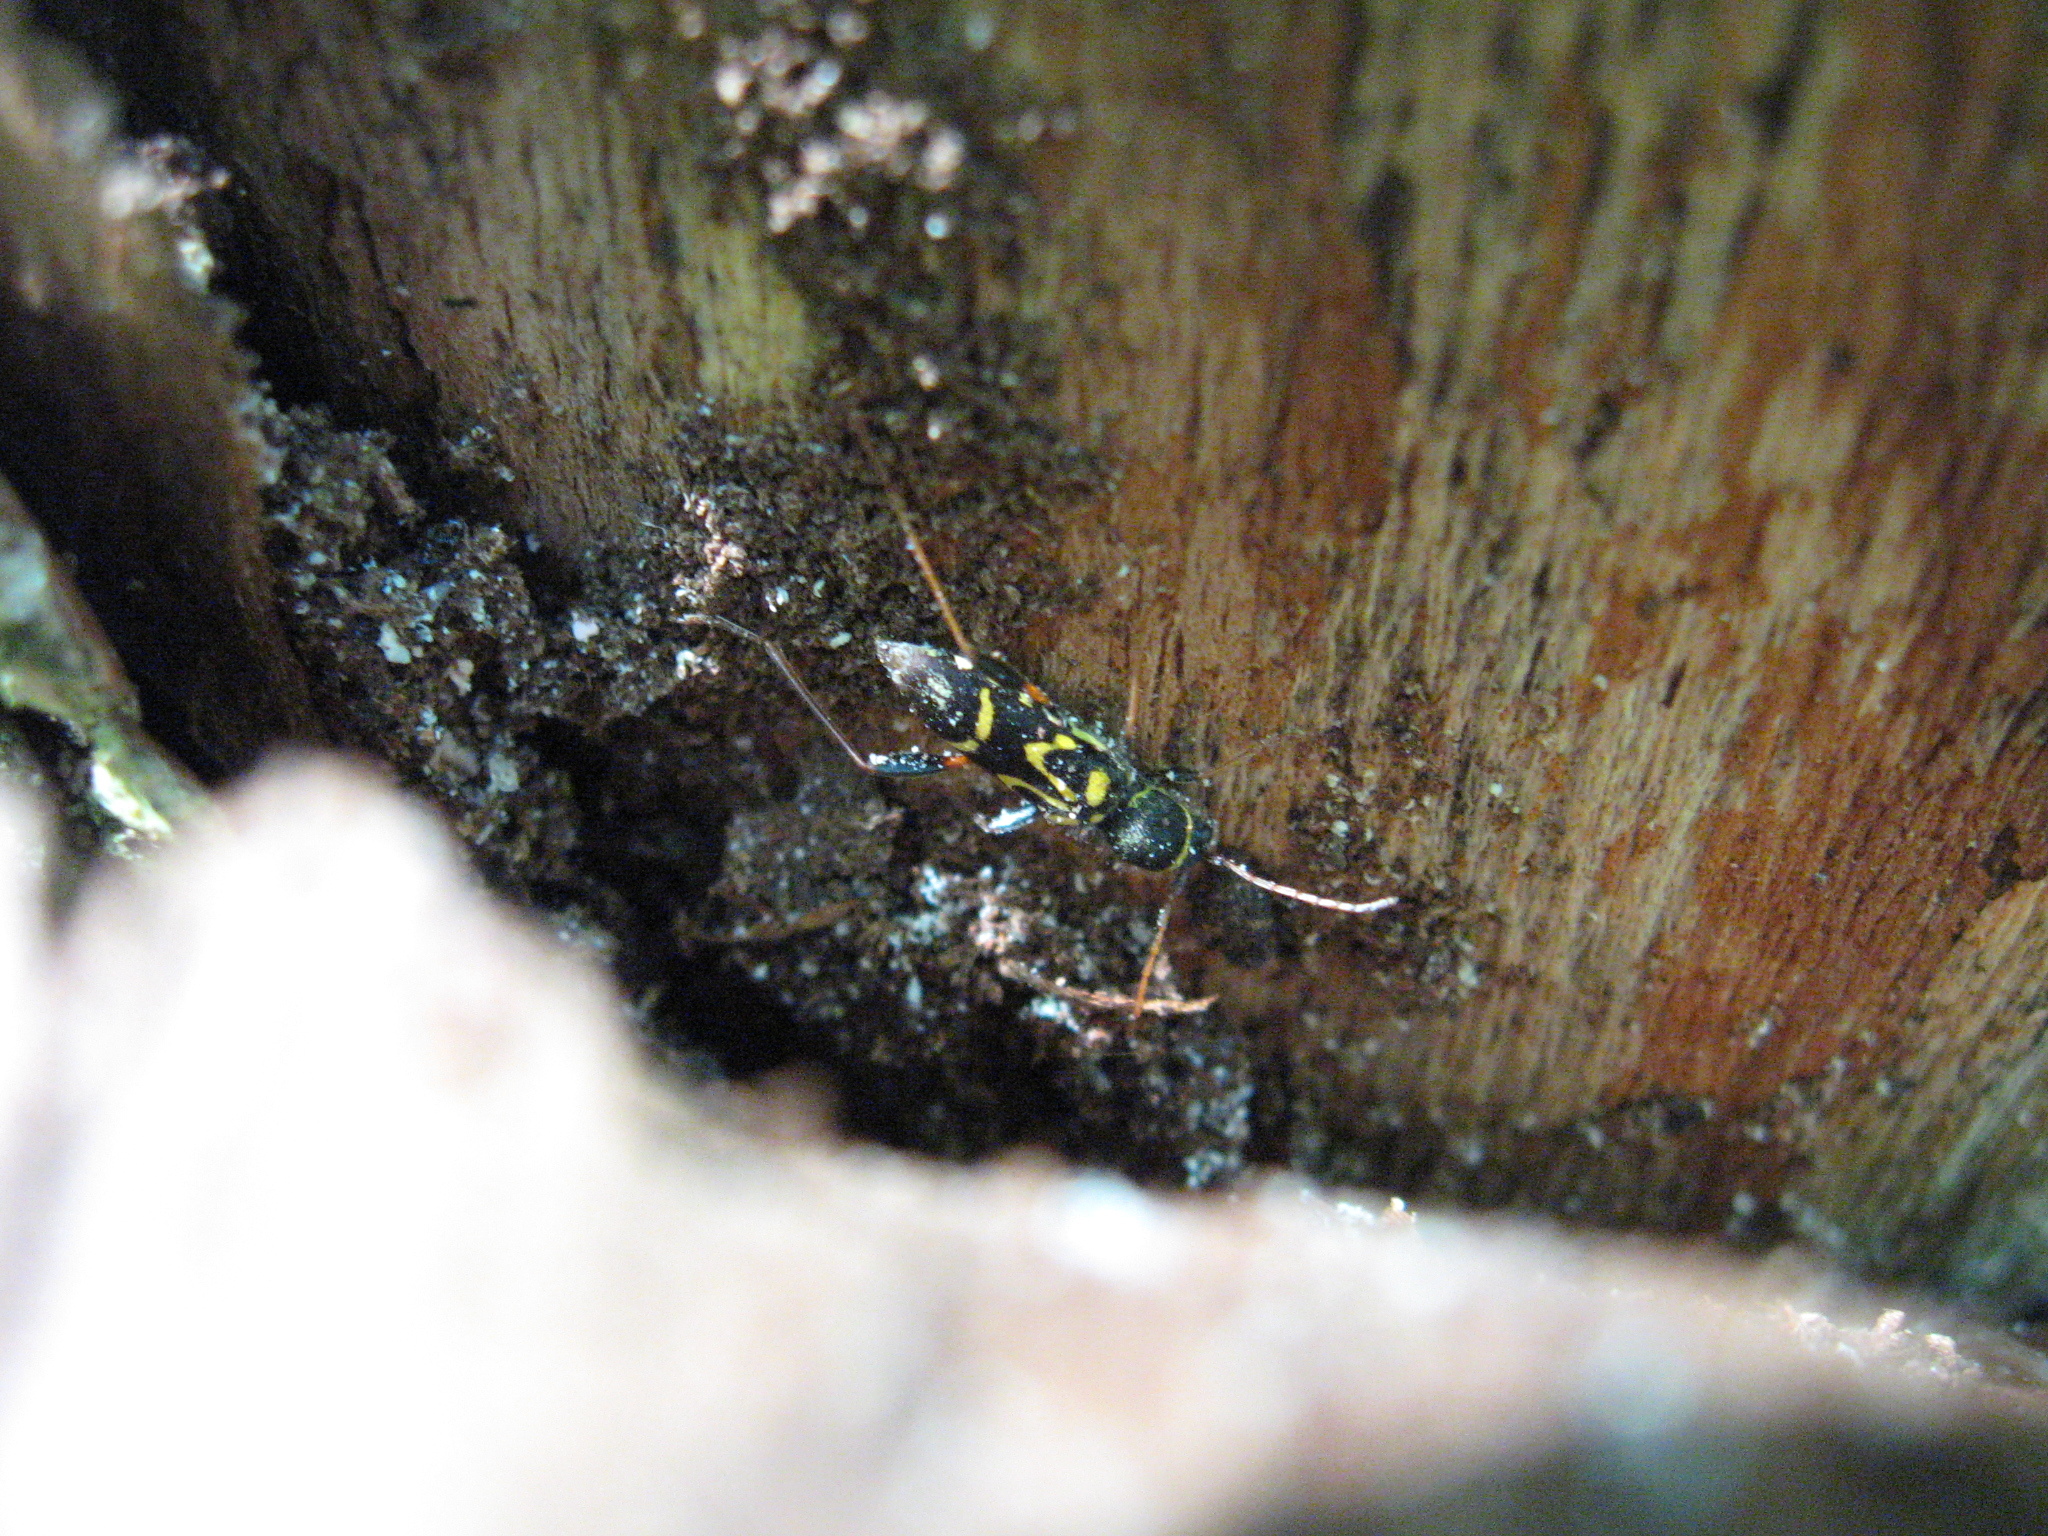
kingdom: Animalia
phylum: Arthropoda
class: Insecta
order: Coleoptera
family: Cerambycidae
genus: Clytus
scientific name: Clytus ruricola
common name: Round-necked longhorn beetle
